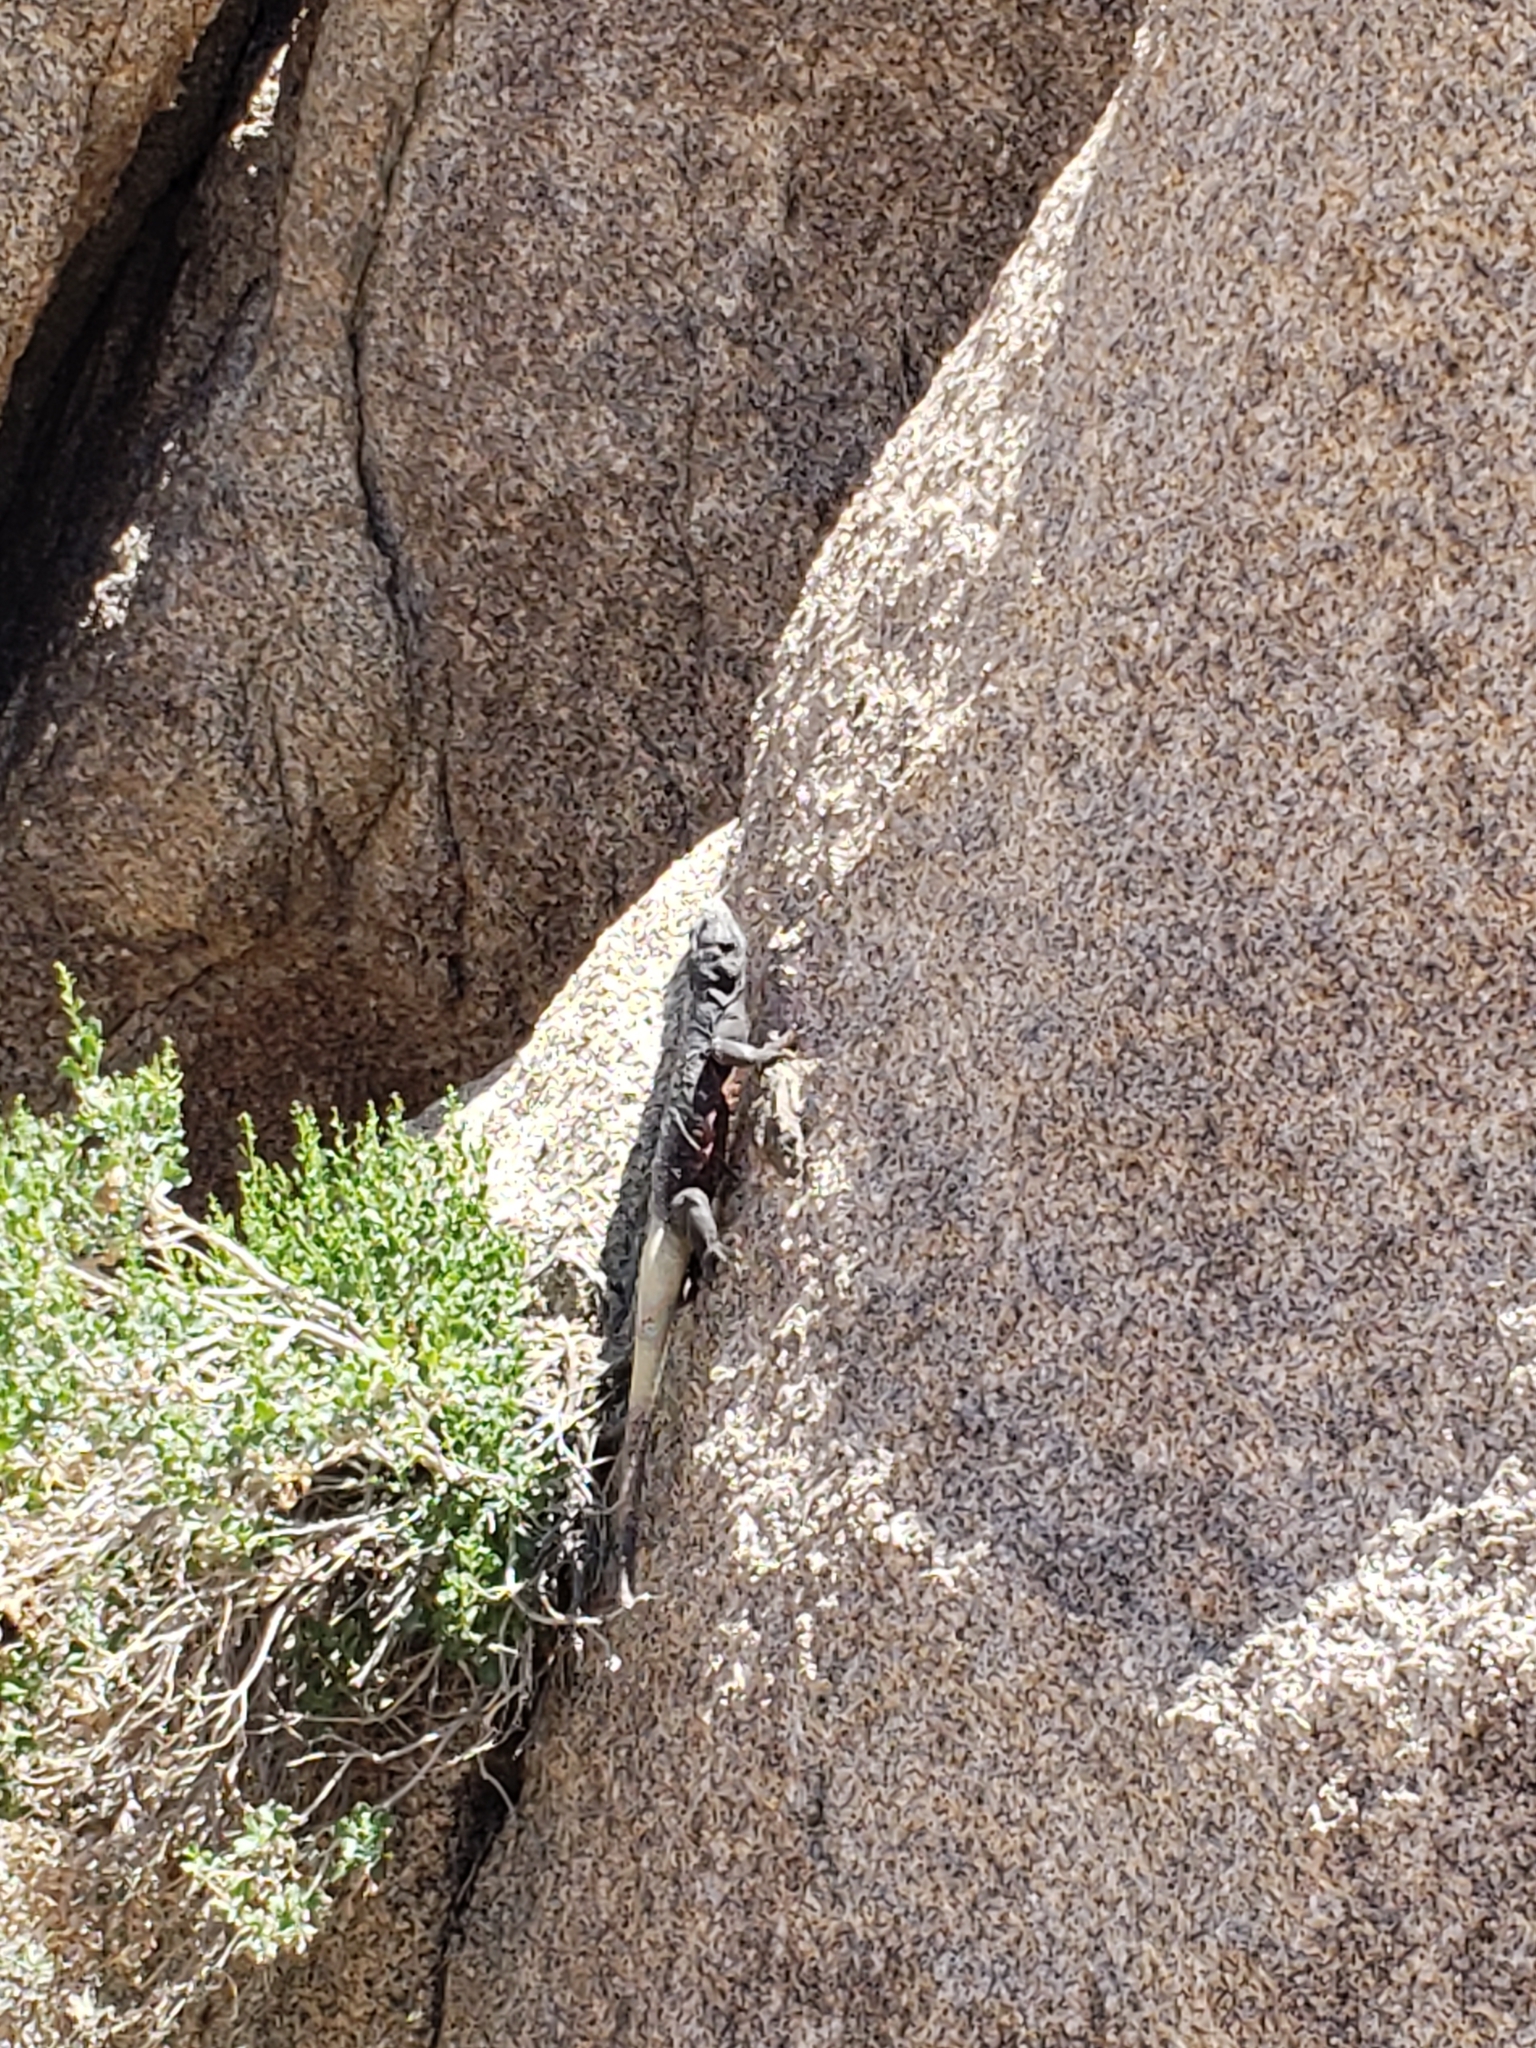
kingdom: Animalia
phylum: Chordata
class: Squamata
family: Iguanidae
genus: Sauromalus
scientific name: Sauromalus ater
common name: Northern chuckwalla
